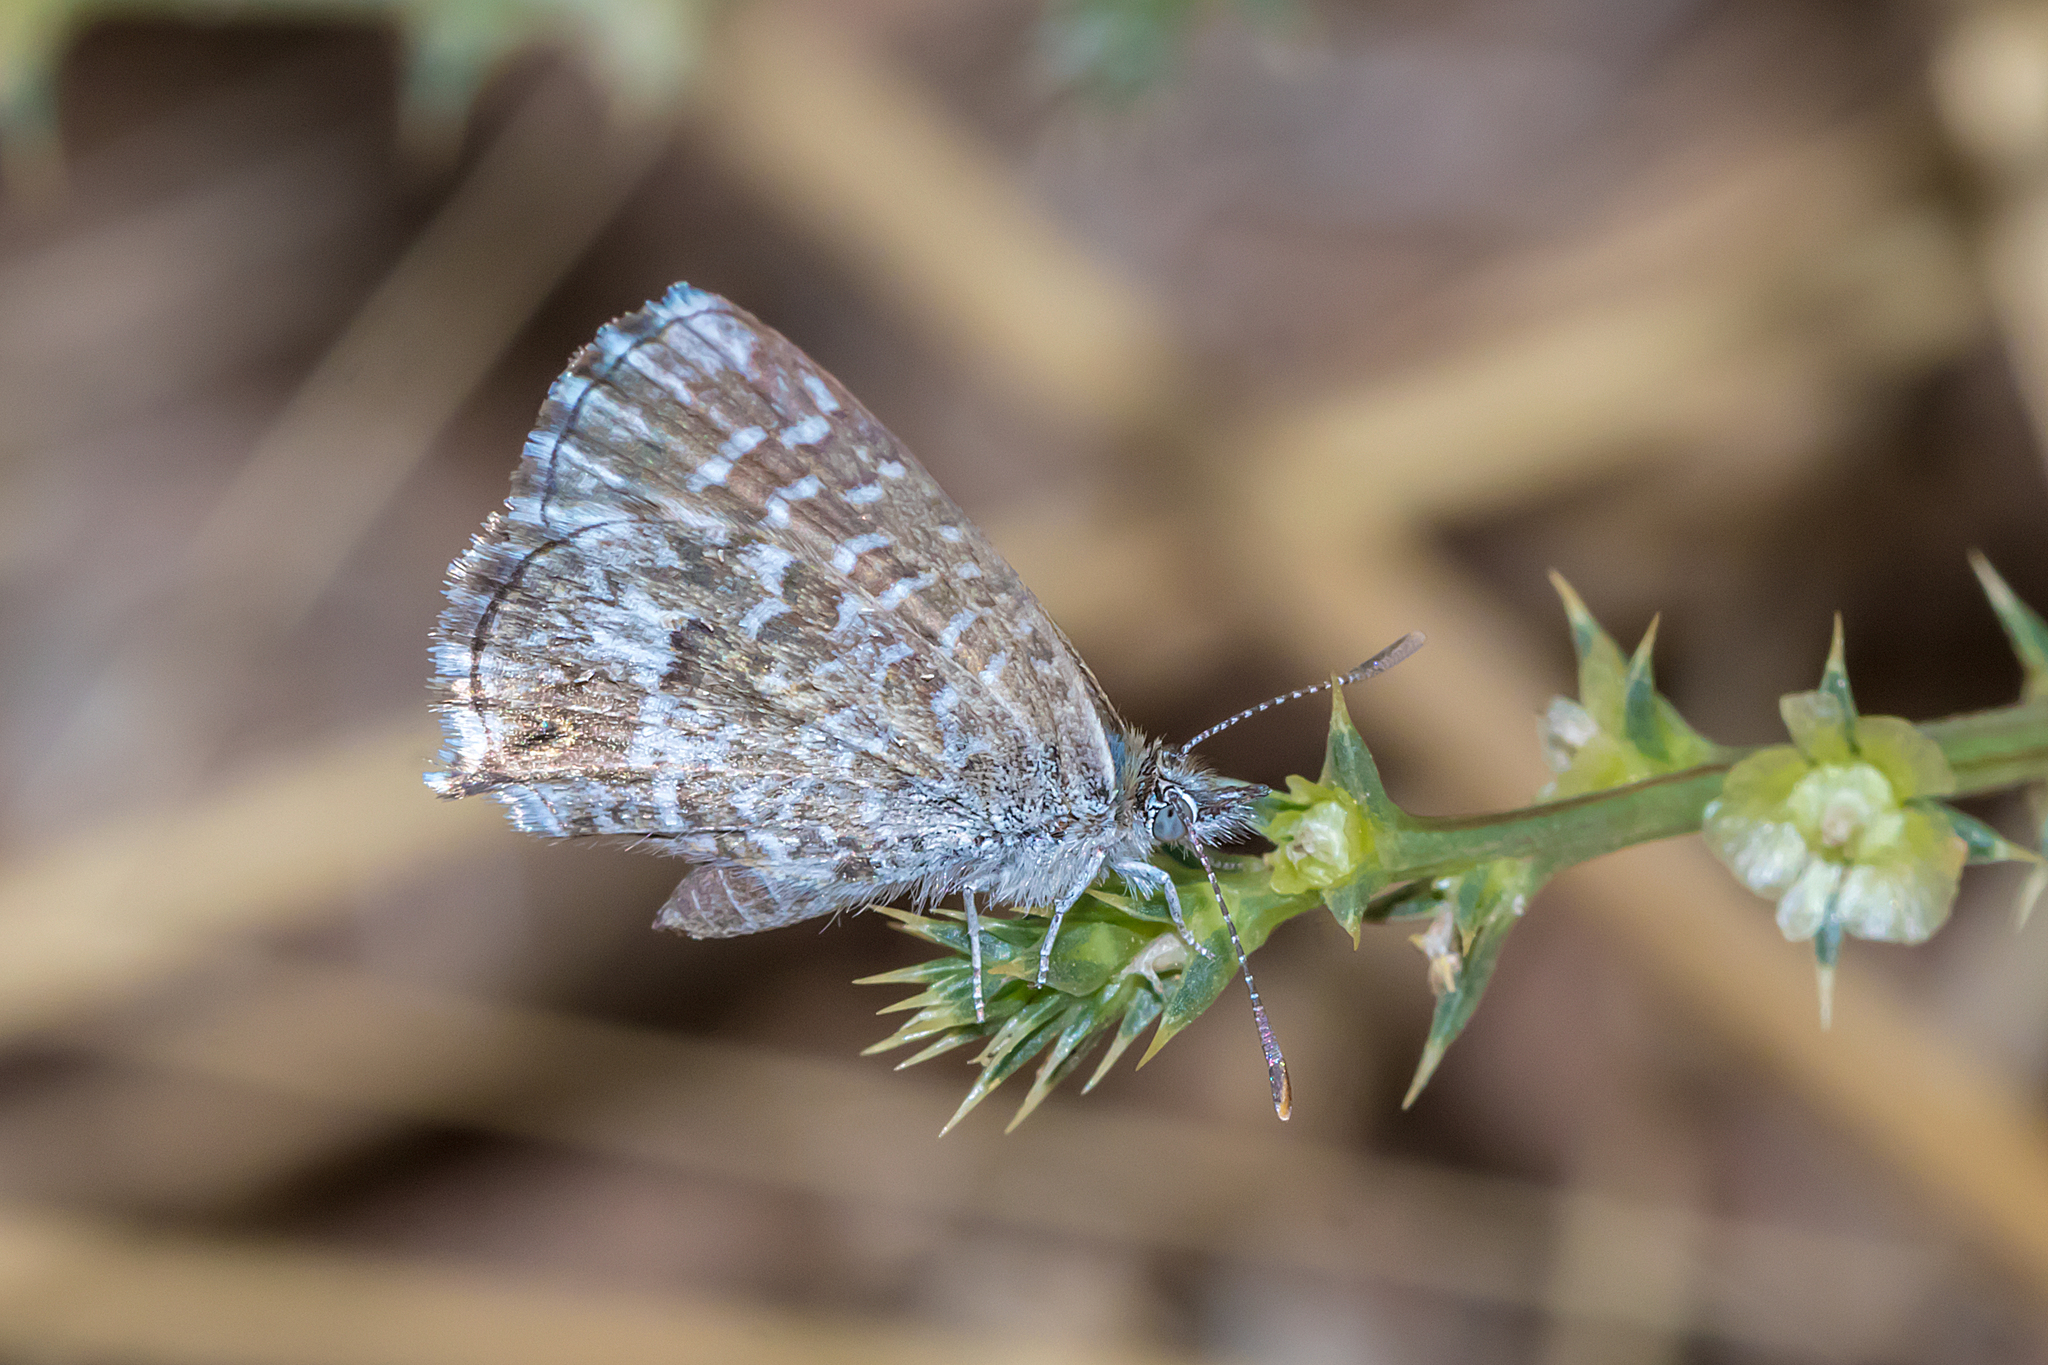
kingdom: Animalia
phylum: Arthropoda
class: Insecta
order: Lepidoptera
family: Lycaenidae
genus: Theclinesthes
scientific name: Theclinesthes serpentata
